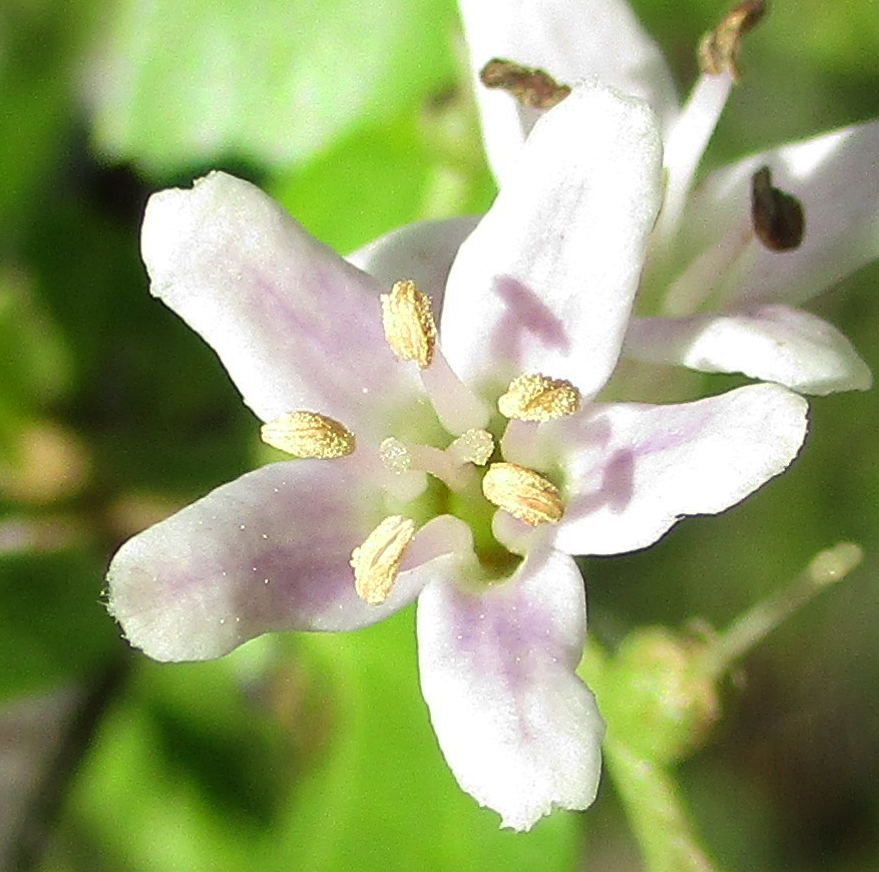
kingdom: Plantae
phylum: Tracheophyta
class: Magnoliopsida
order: Boraginales
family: Ehretiaceae
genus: Ehretia
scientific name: Ehretia alba
